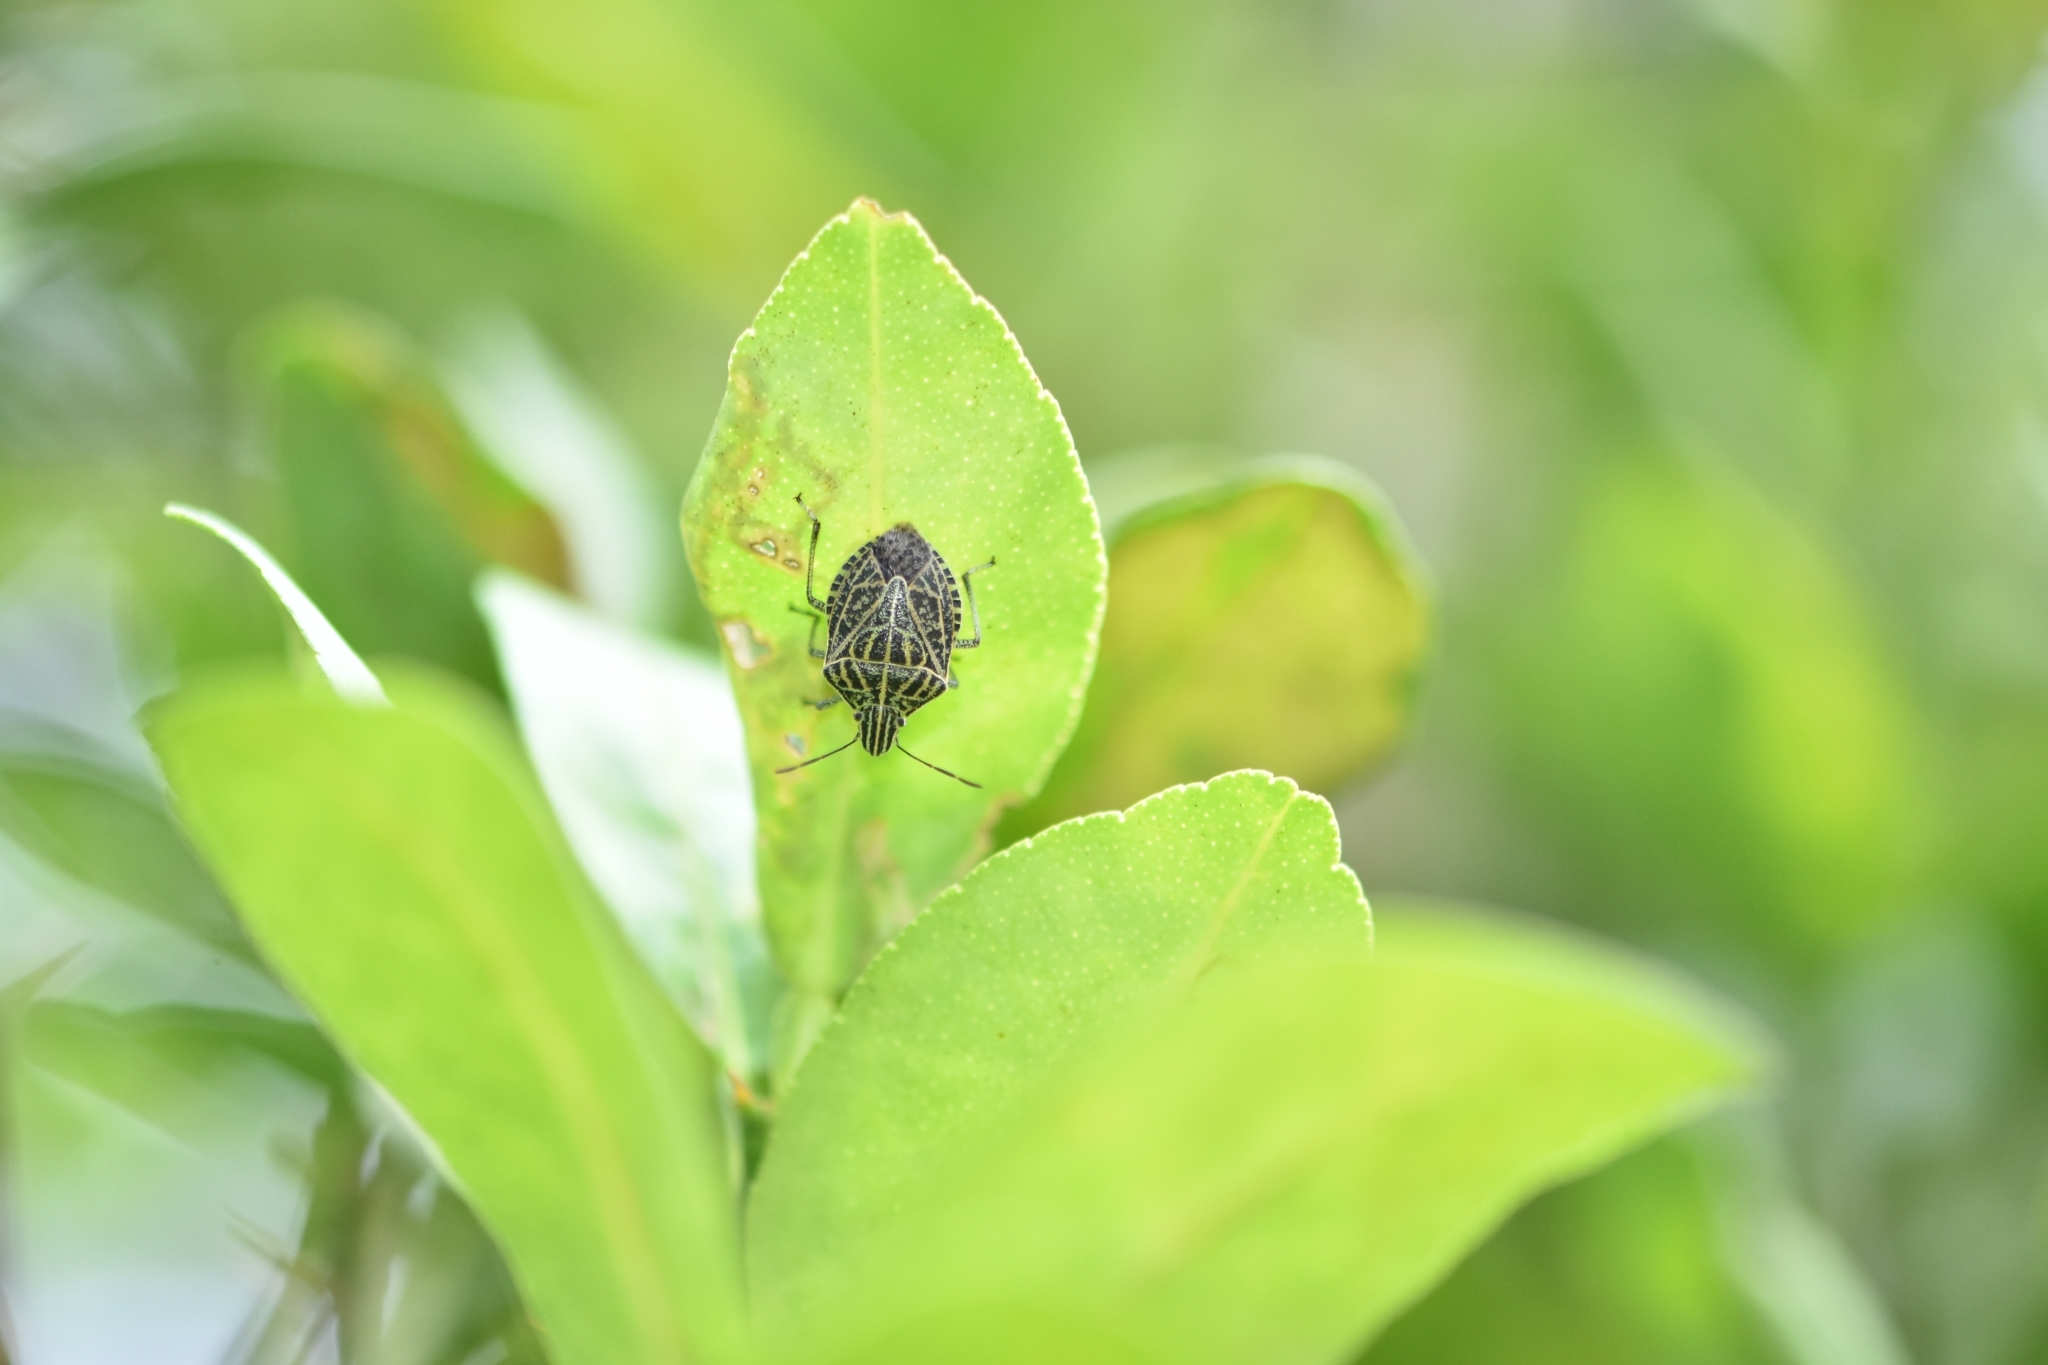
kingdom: Animalia
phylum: Arthropoda
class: Insecta
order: Hemiptera
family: Pentatomidae
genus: Cappaea
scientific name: Cappaea taprobanensis
